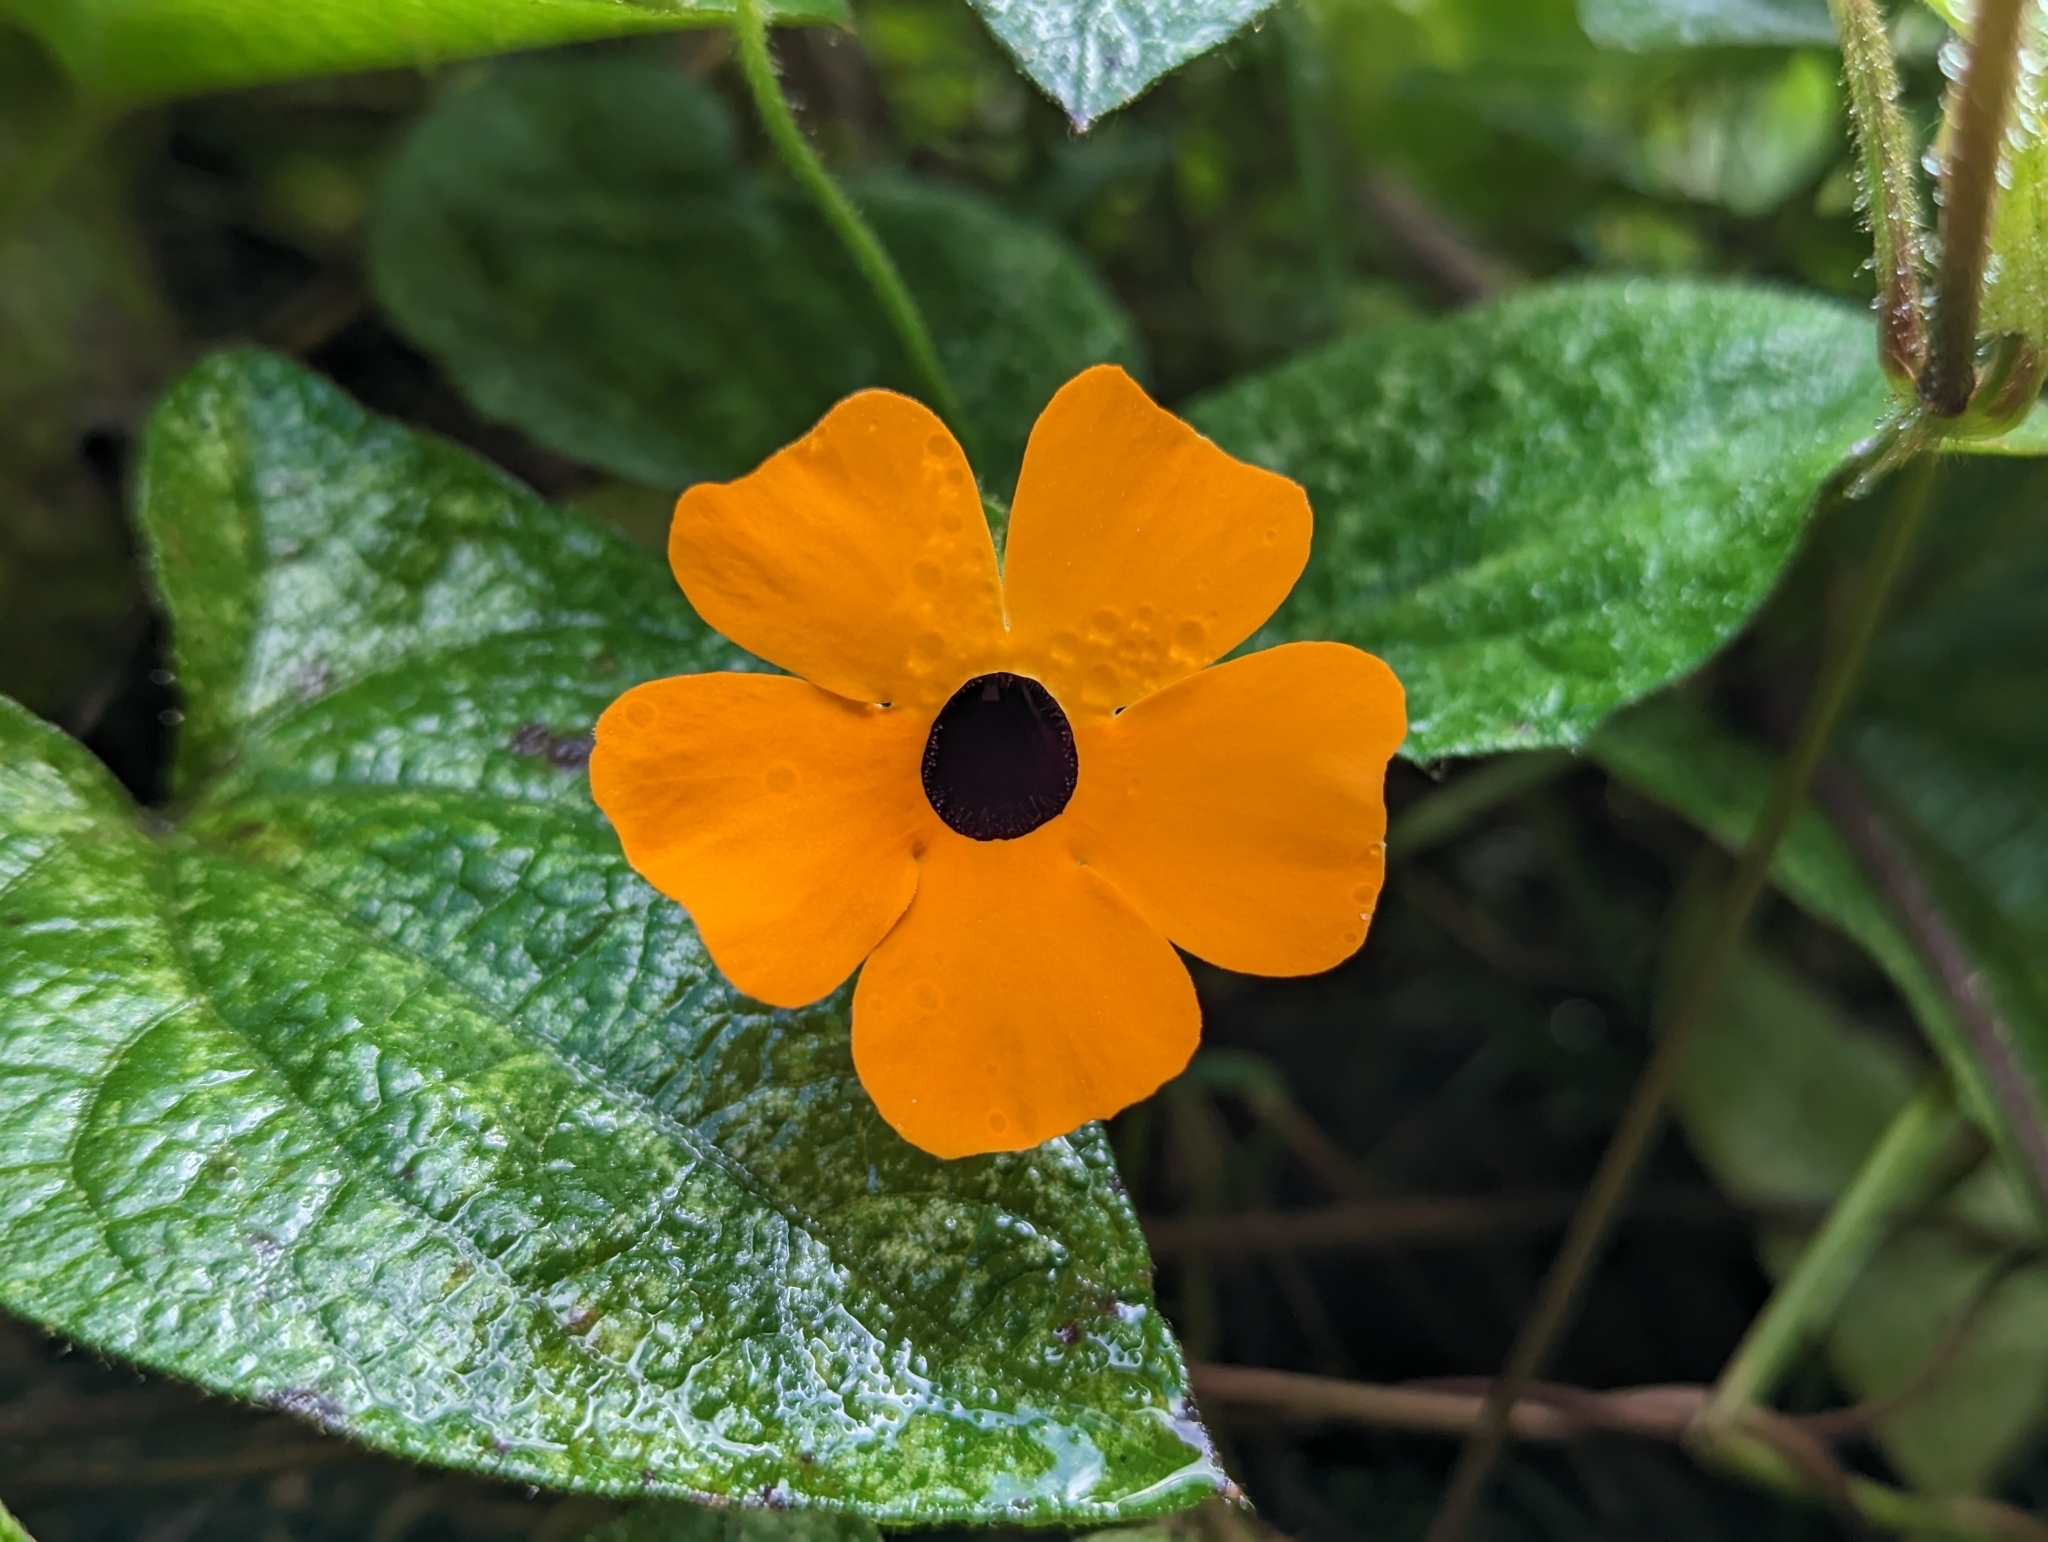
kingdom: Plantae
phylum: Tracheophyta
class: Magnoliopsida
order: Lamiales
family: Acanthaceae
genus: Thunbergia
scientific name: Thunbergia alata
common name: Blackeyed susan vine
